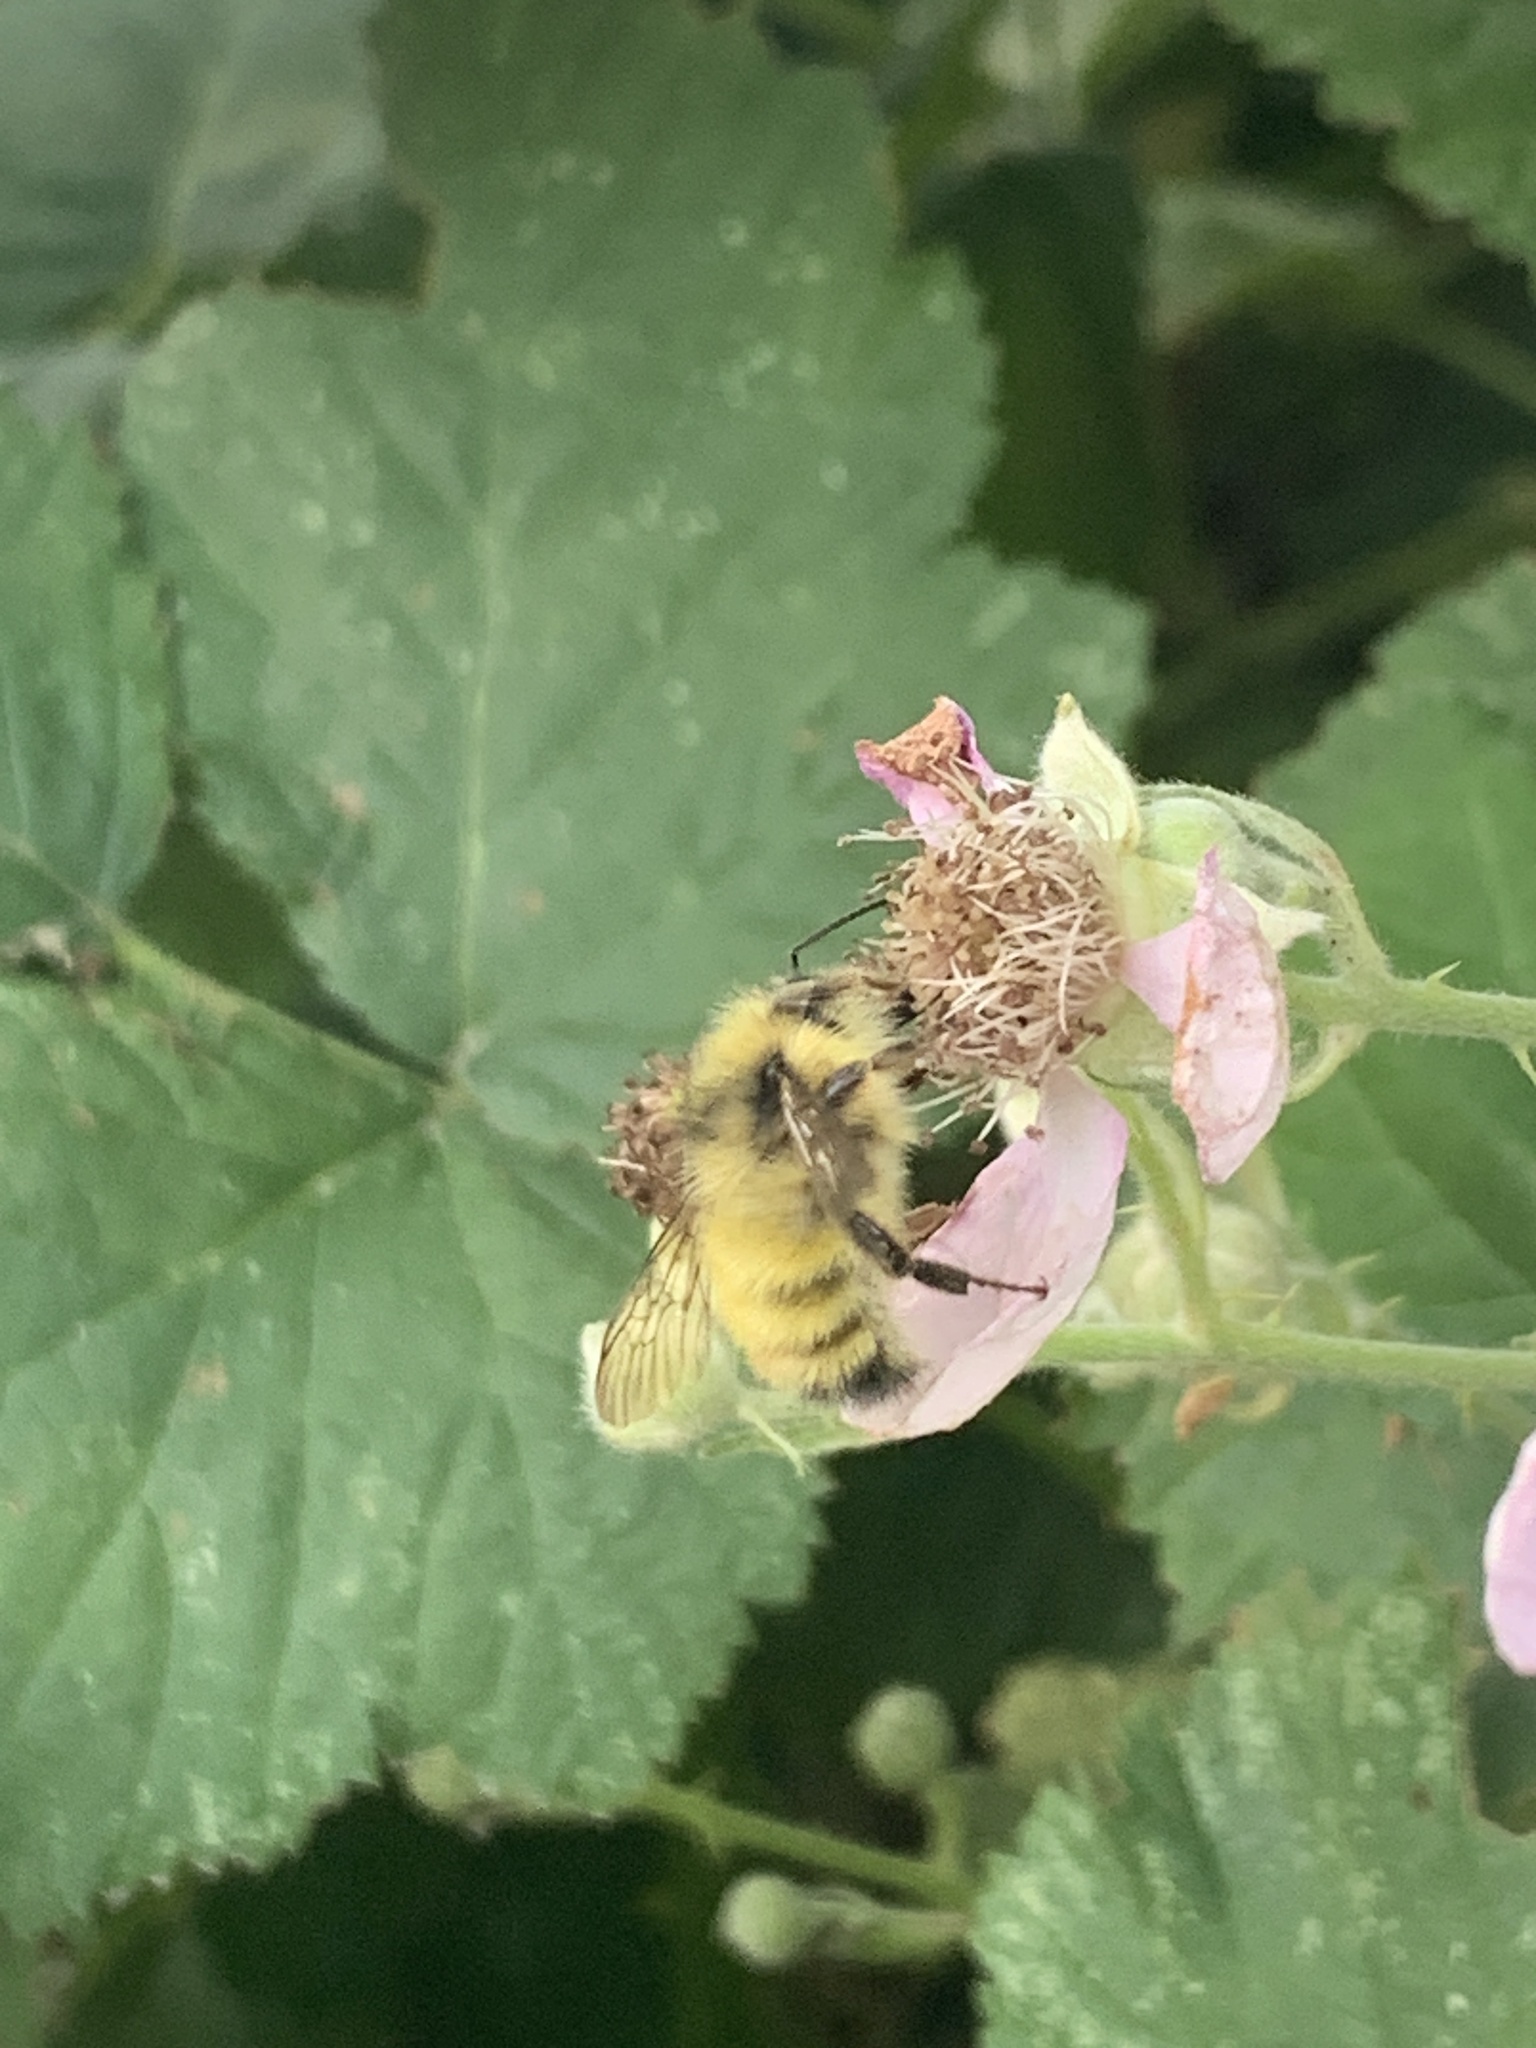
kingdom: Animalia
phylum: Arthropoda
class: Insecta
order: Hymenoptera
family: Apidae
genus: Bombus
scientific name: Bombus flavifrons
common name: Yellow head bumble bee
